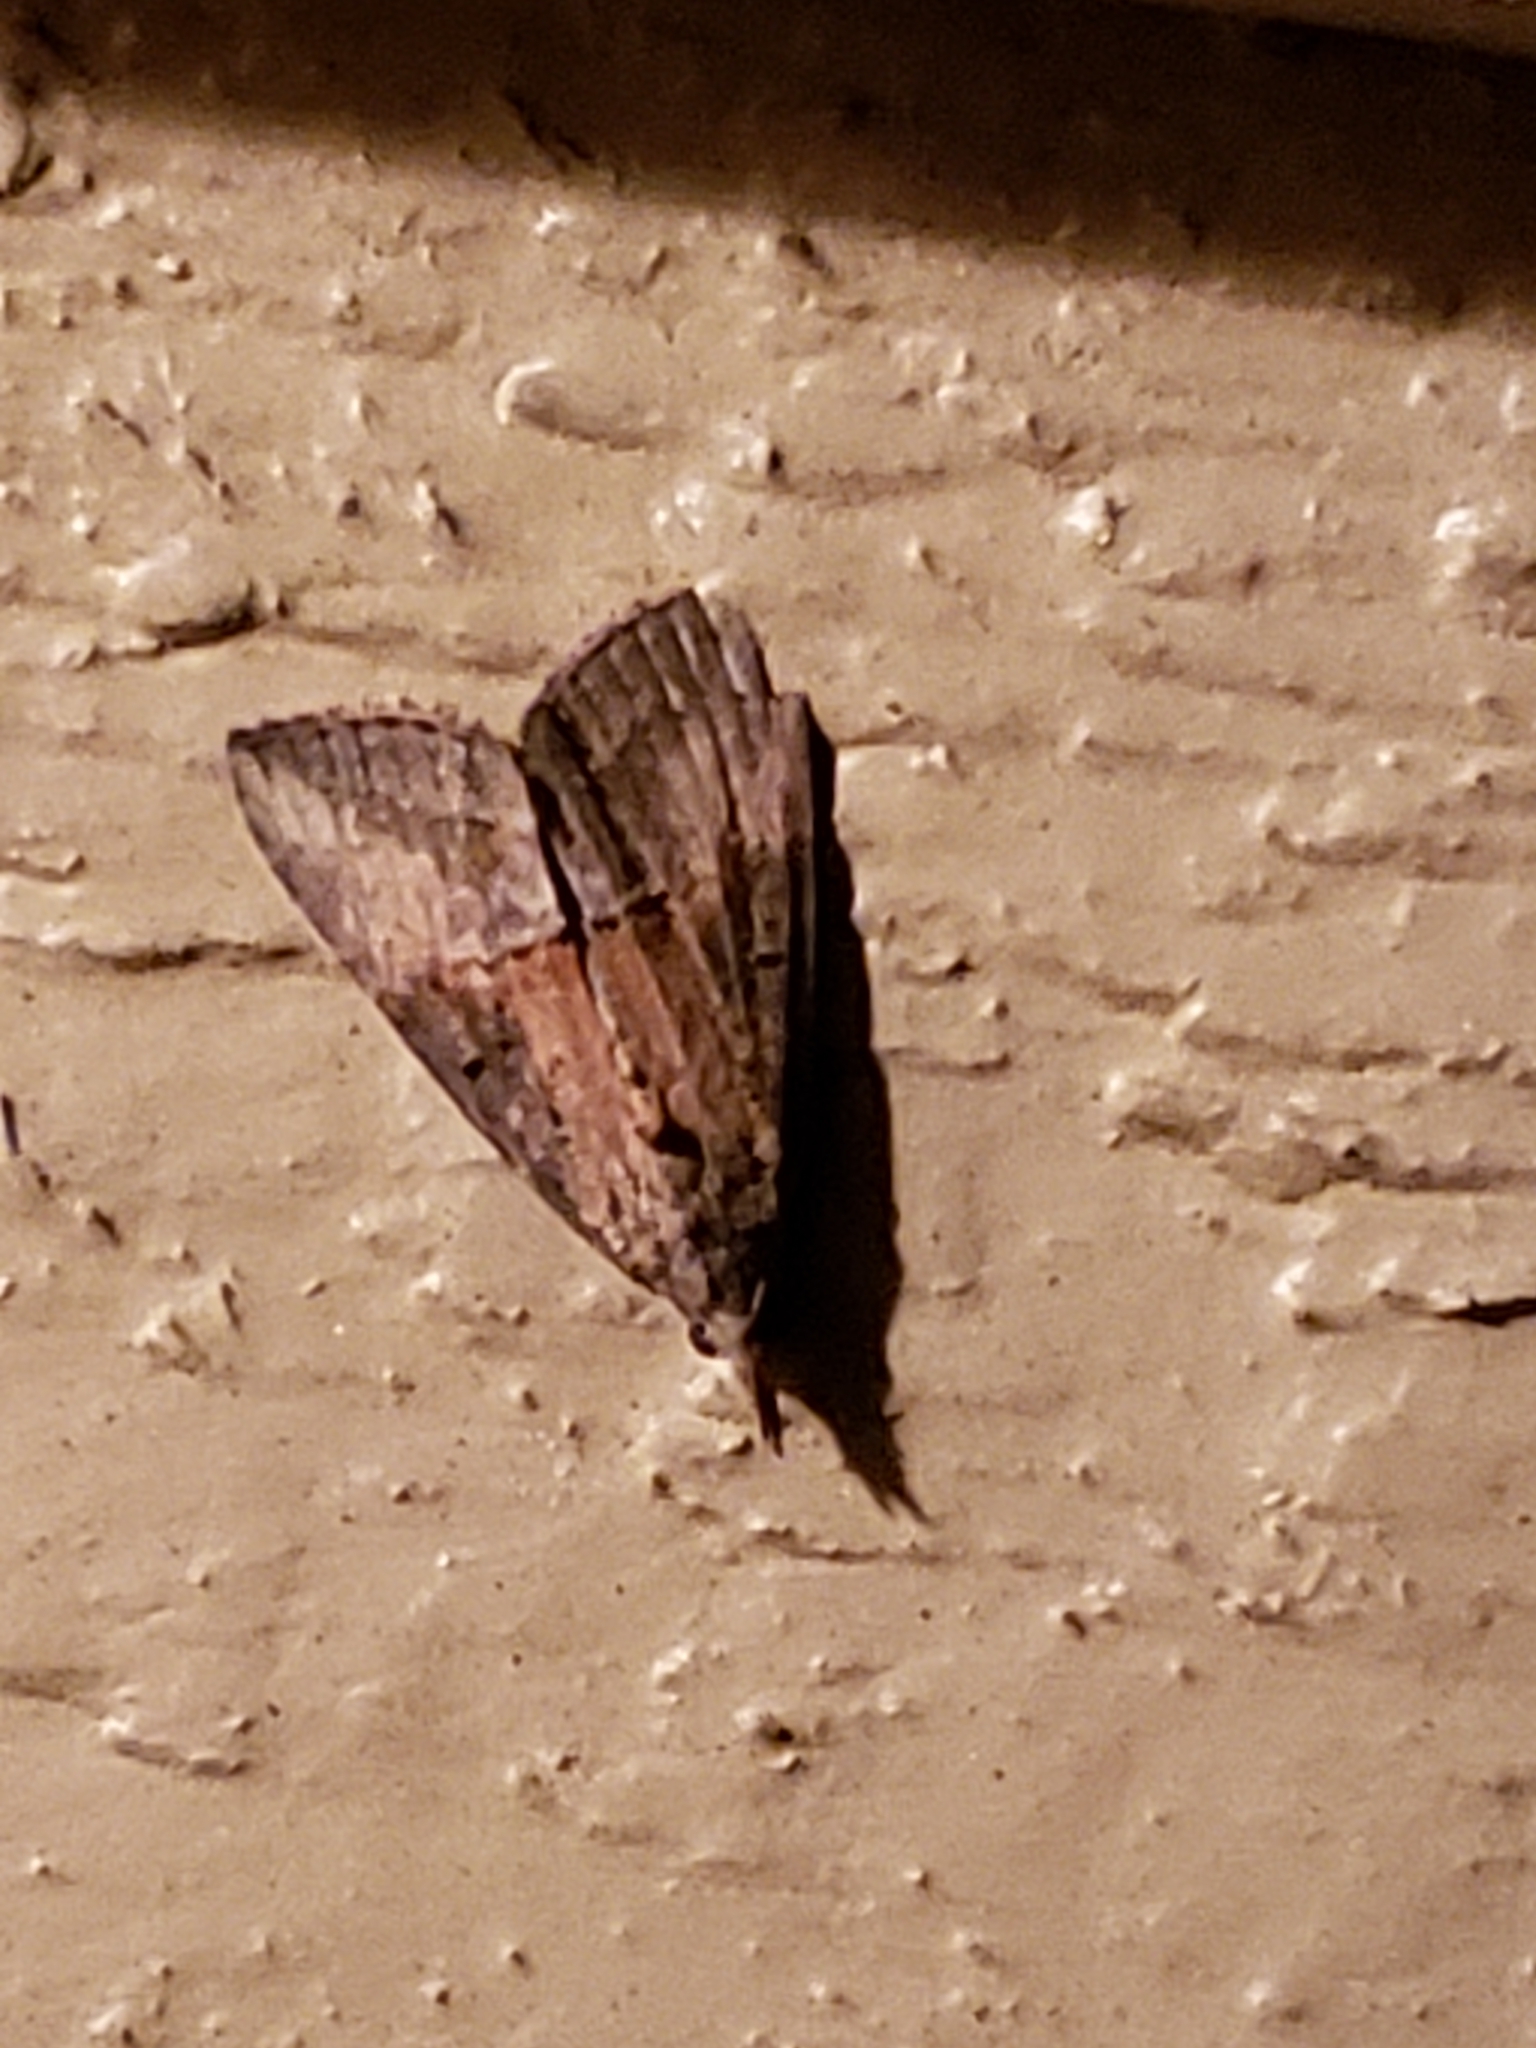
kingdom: Animalia
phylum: Arthropoda
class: Insecta
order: Lepidoptera
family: Erebidae
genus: Hypena
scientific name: Hypena scabra
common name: Green cloverworm
